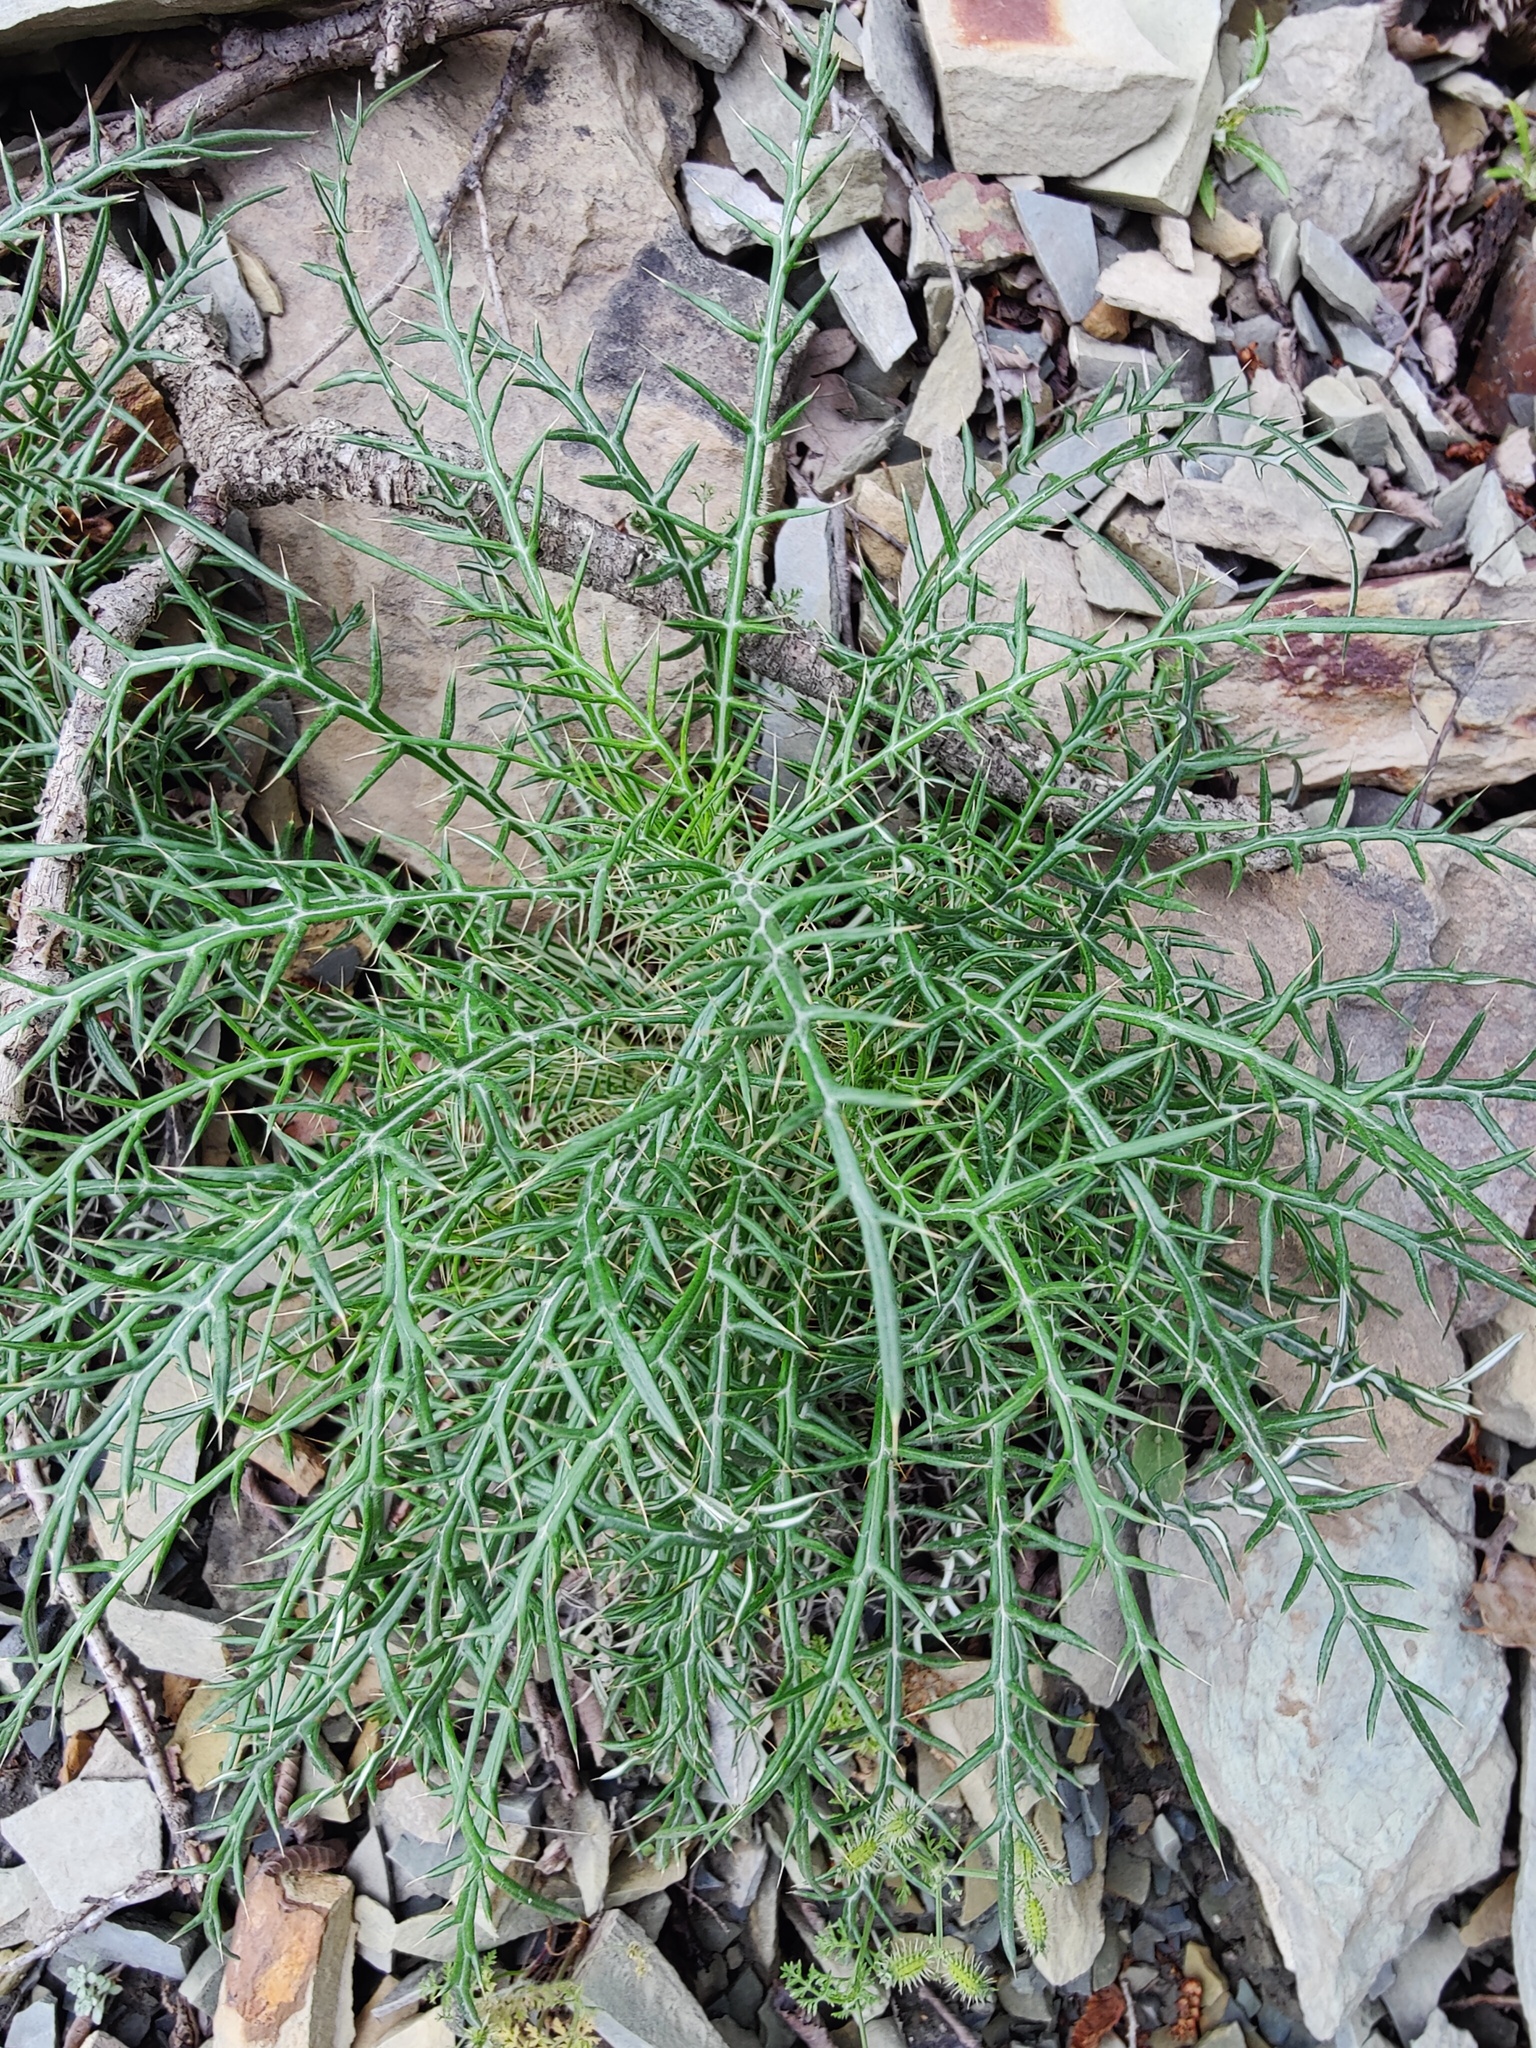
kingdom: Plantae
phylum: Tracheophyta
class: Magnoliopsida
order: Asterales
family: Asteraceae
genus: Ptilostemon
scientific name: Ptilostemon echinocephalus
